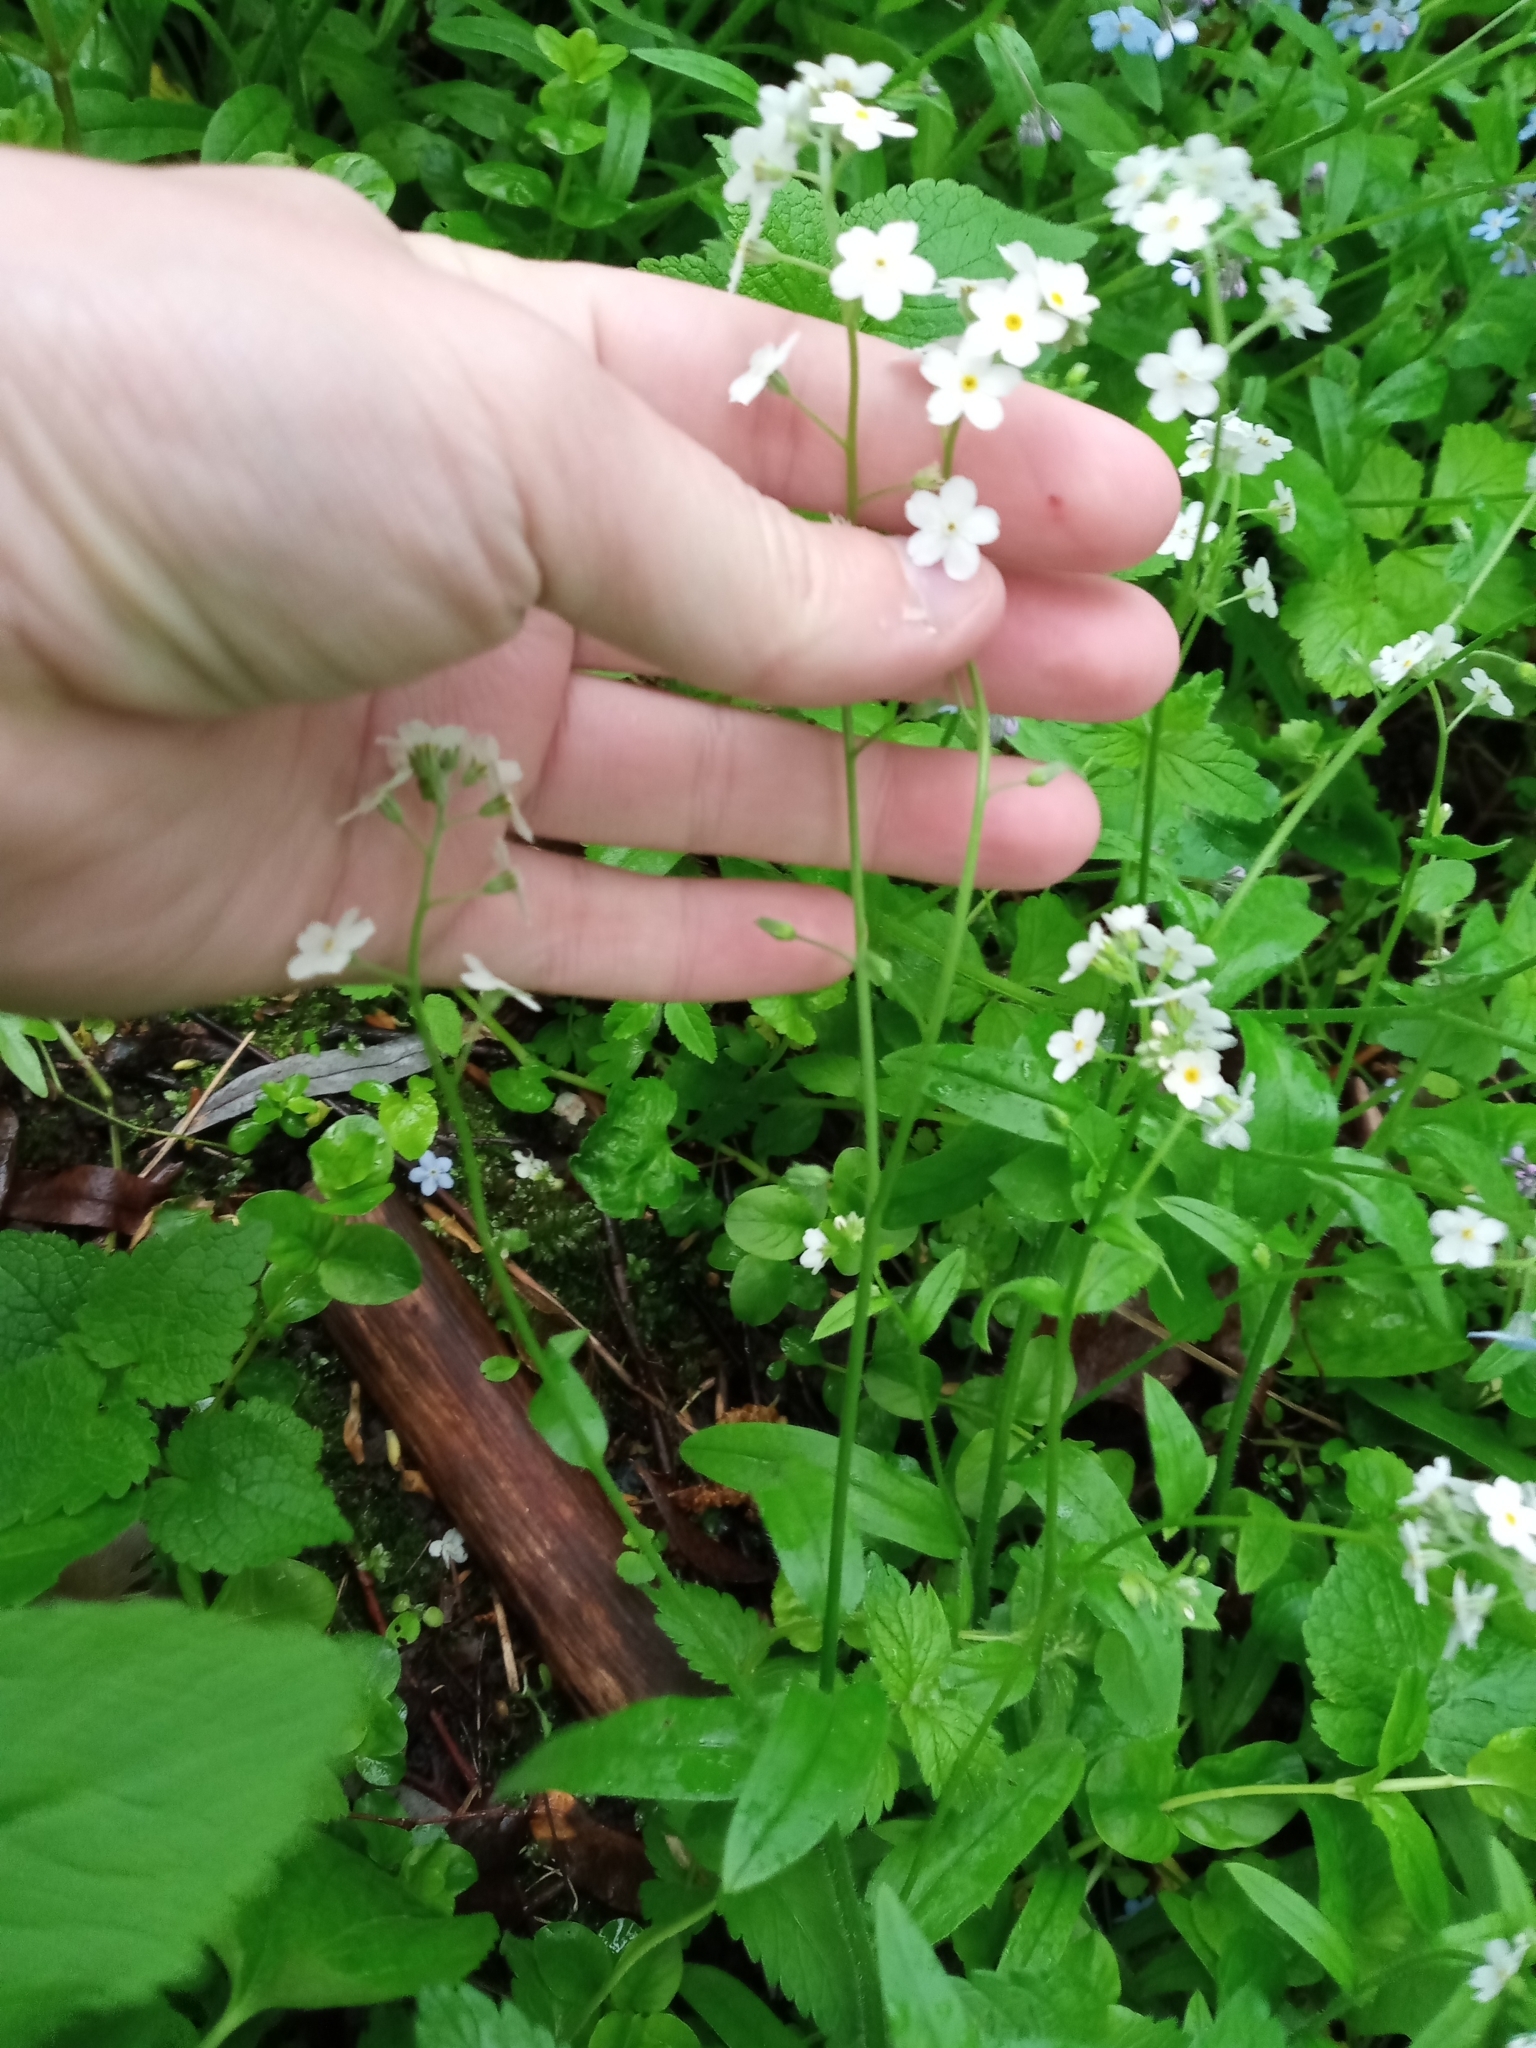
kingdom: Plantae
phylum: Tracheophyta
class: Magnoliopsida
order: Boraginales
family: Boraginaceae
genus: Myosotis
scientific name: Myosotis sylvatica
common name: Wood forget-me-not
